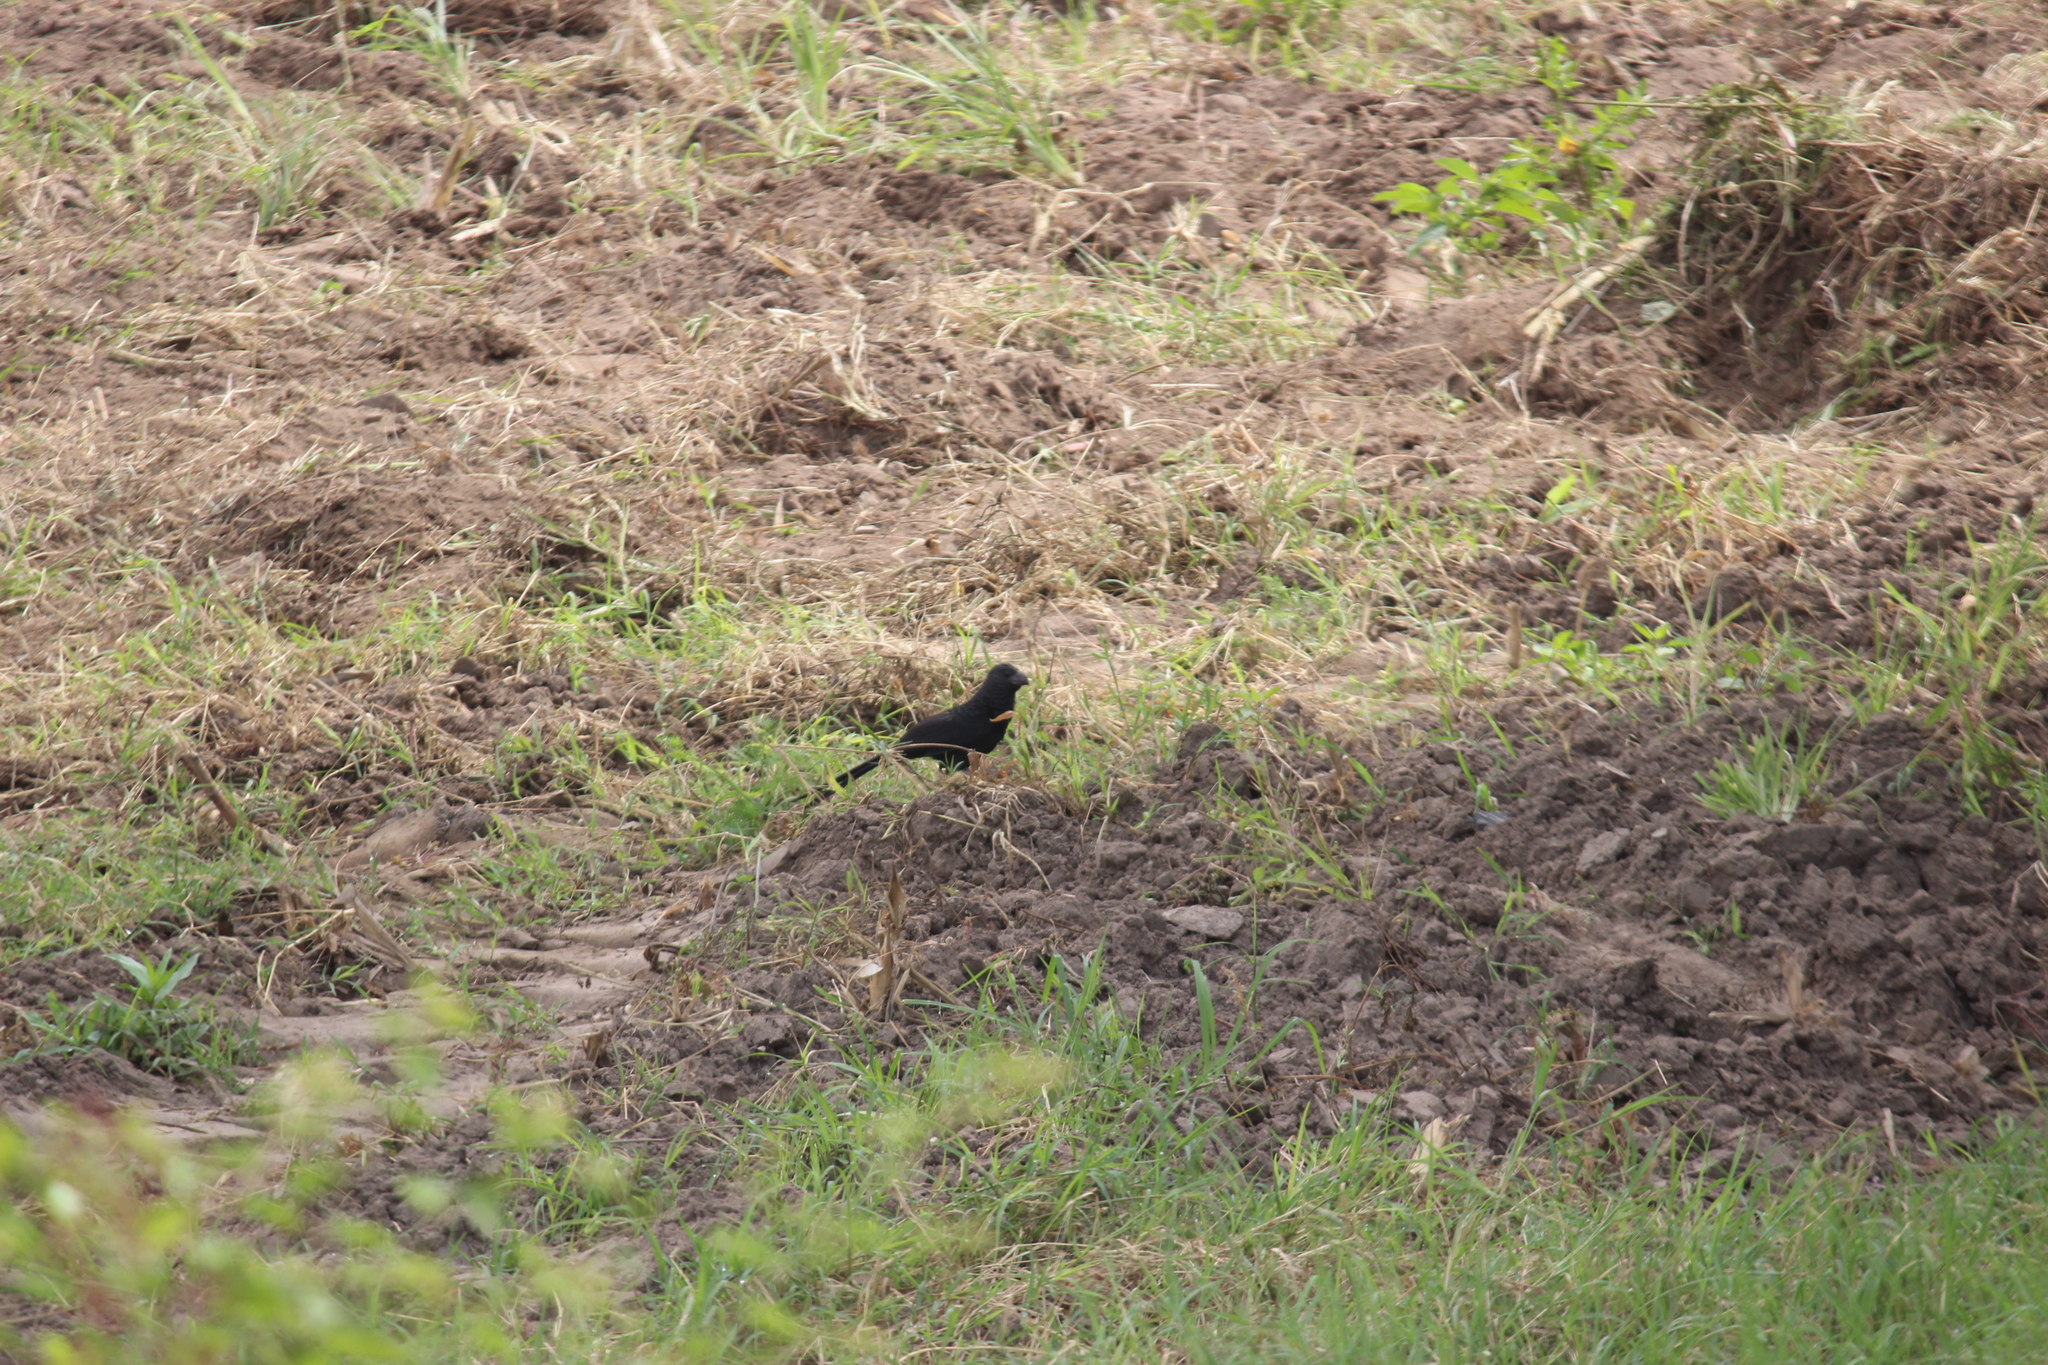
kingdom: Animalia
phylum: Chordata
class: Aves
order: Cuculiformes
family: Cuculidae
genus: Crotophaga
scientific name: Crotophaga sulcirostris
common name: Groove-billed ani
